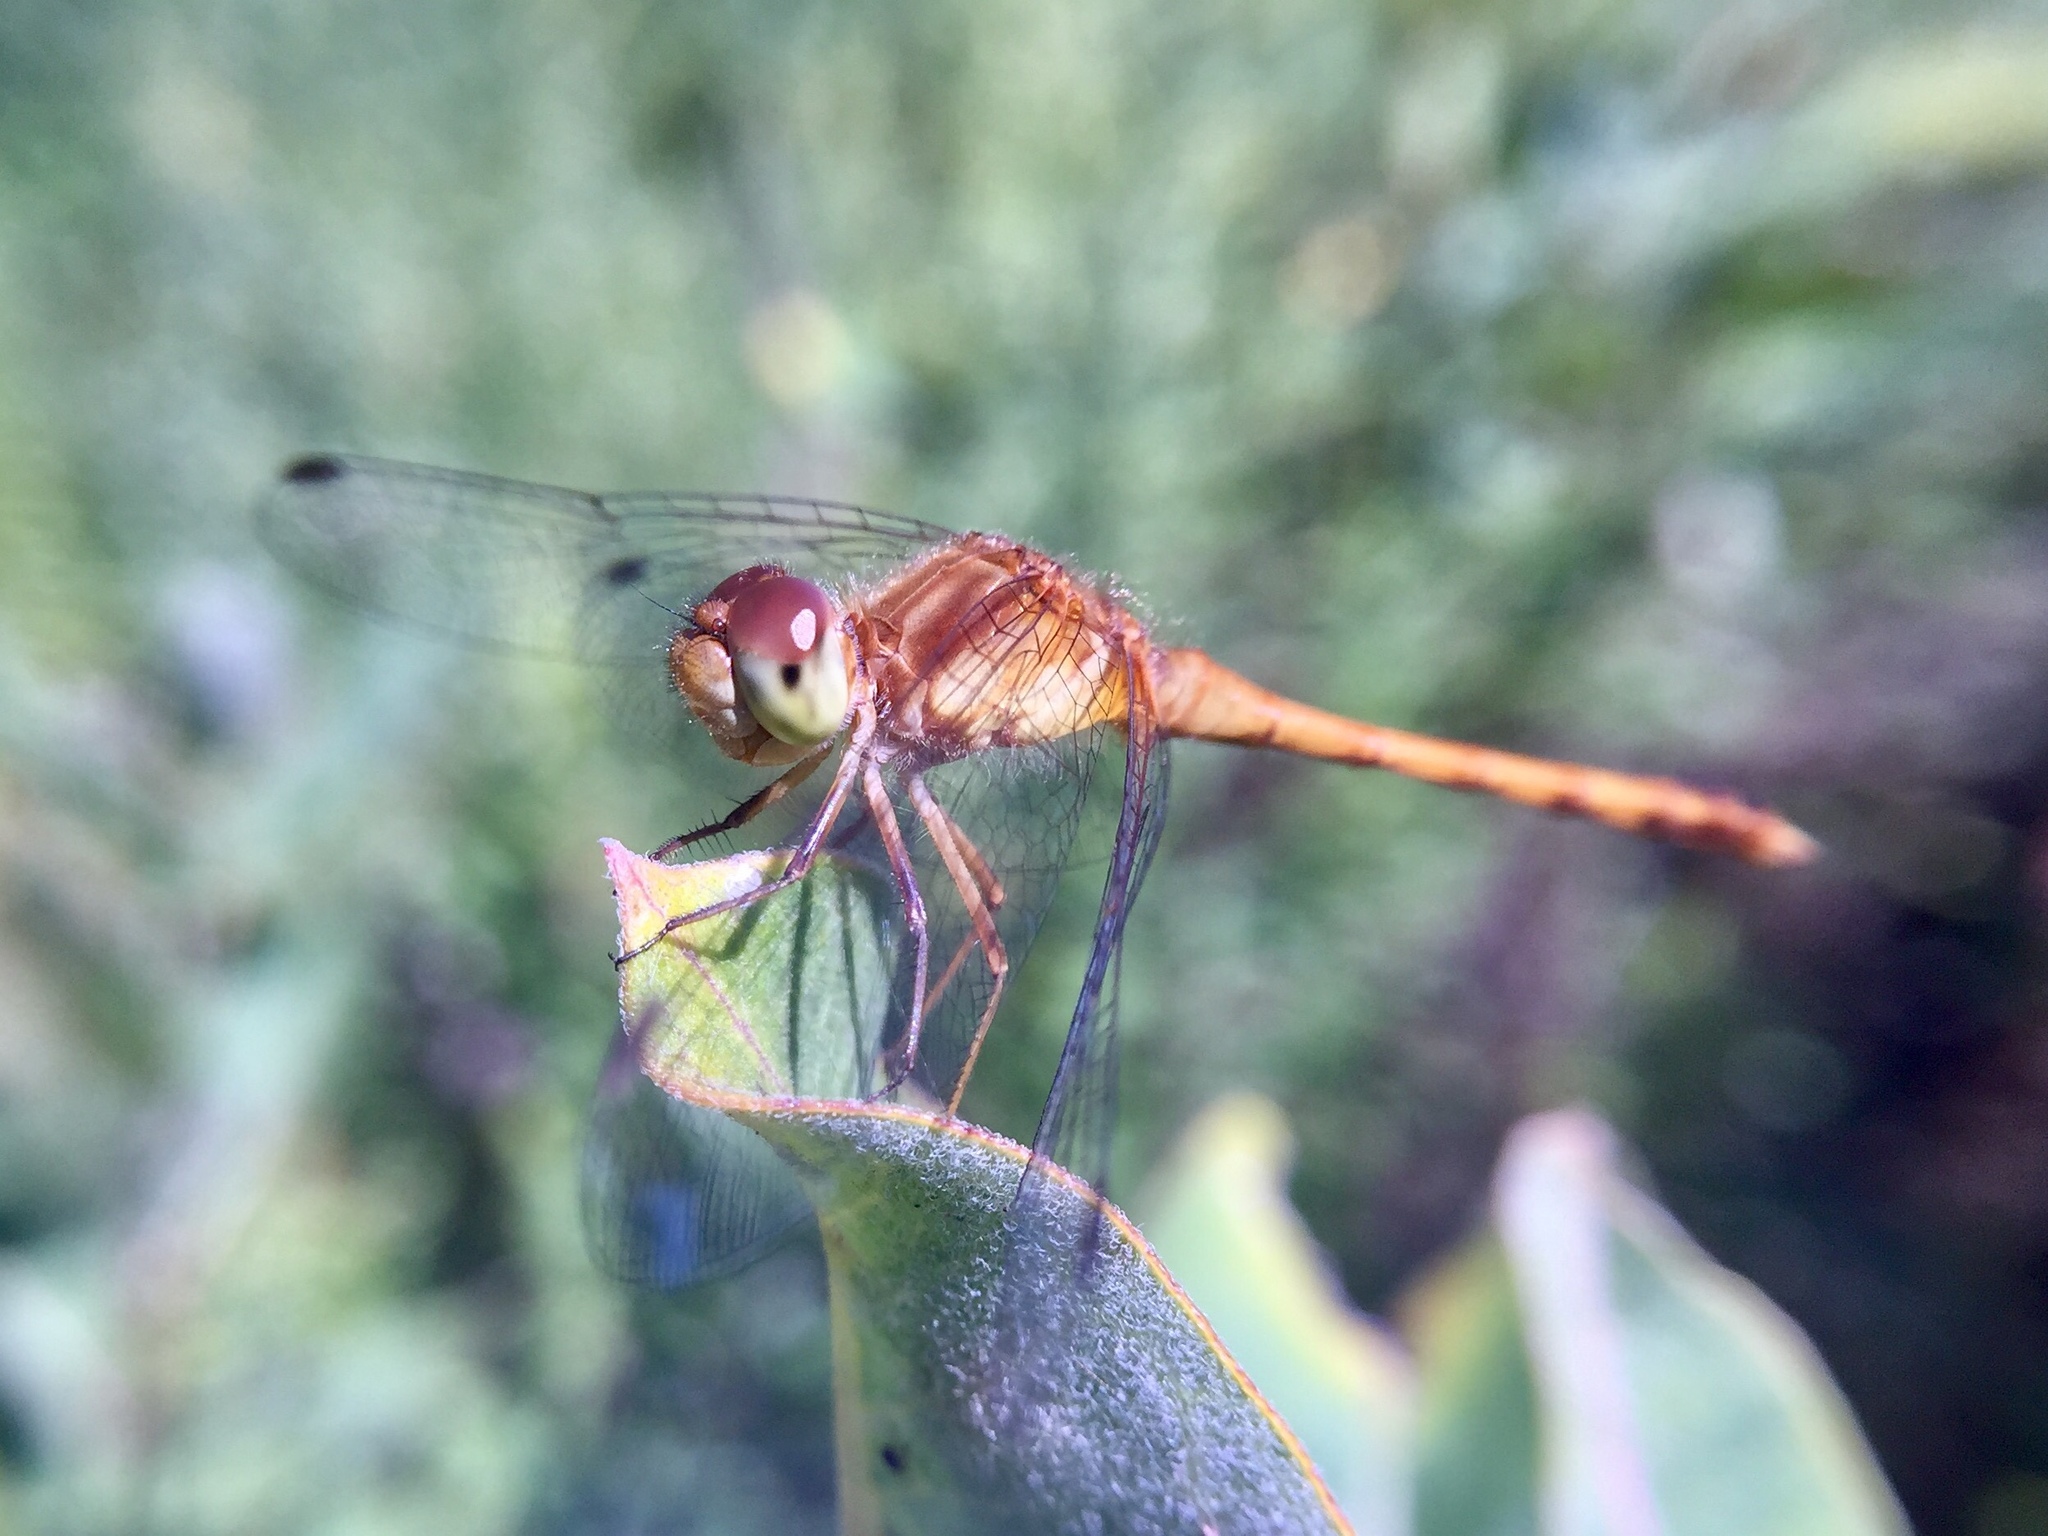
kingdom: Animalia
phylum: Arthropoda
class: Insecta
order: Odonata
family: Libellulidae
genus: Sympetrum
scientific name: Sympetrum vicinum
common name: Autumn meadowhawk
